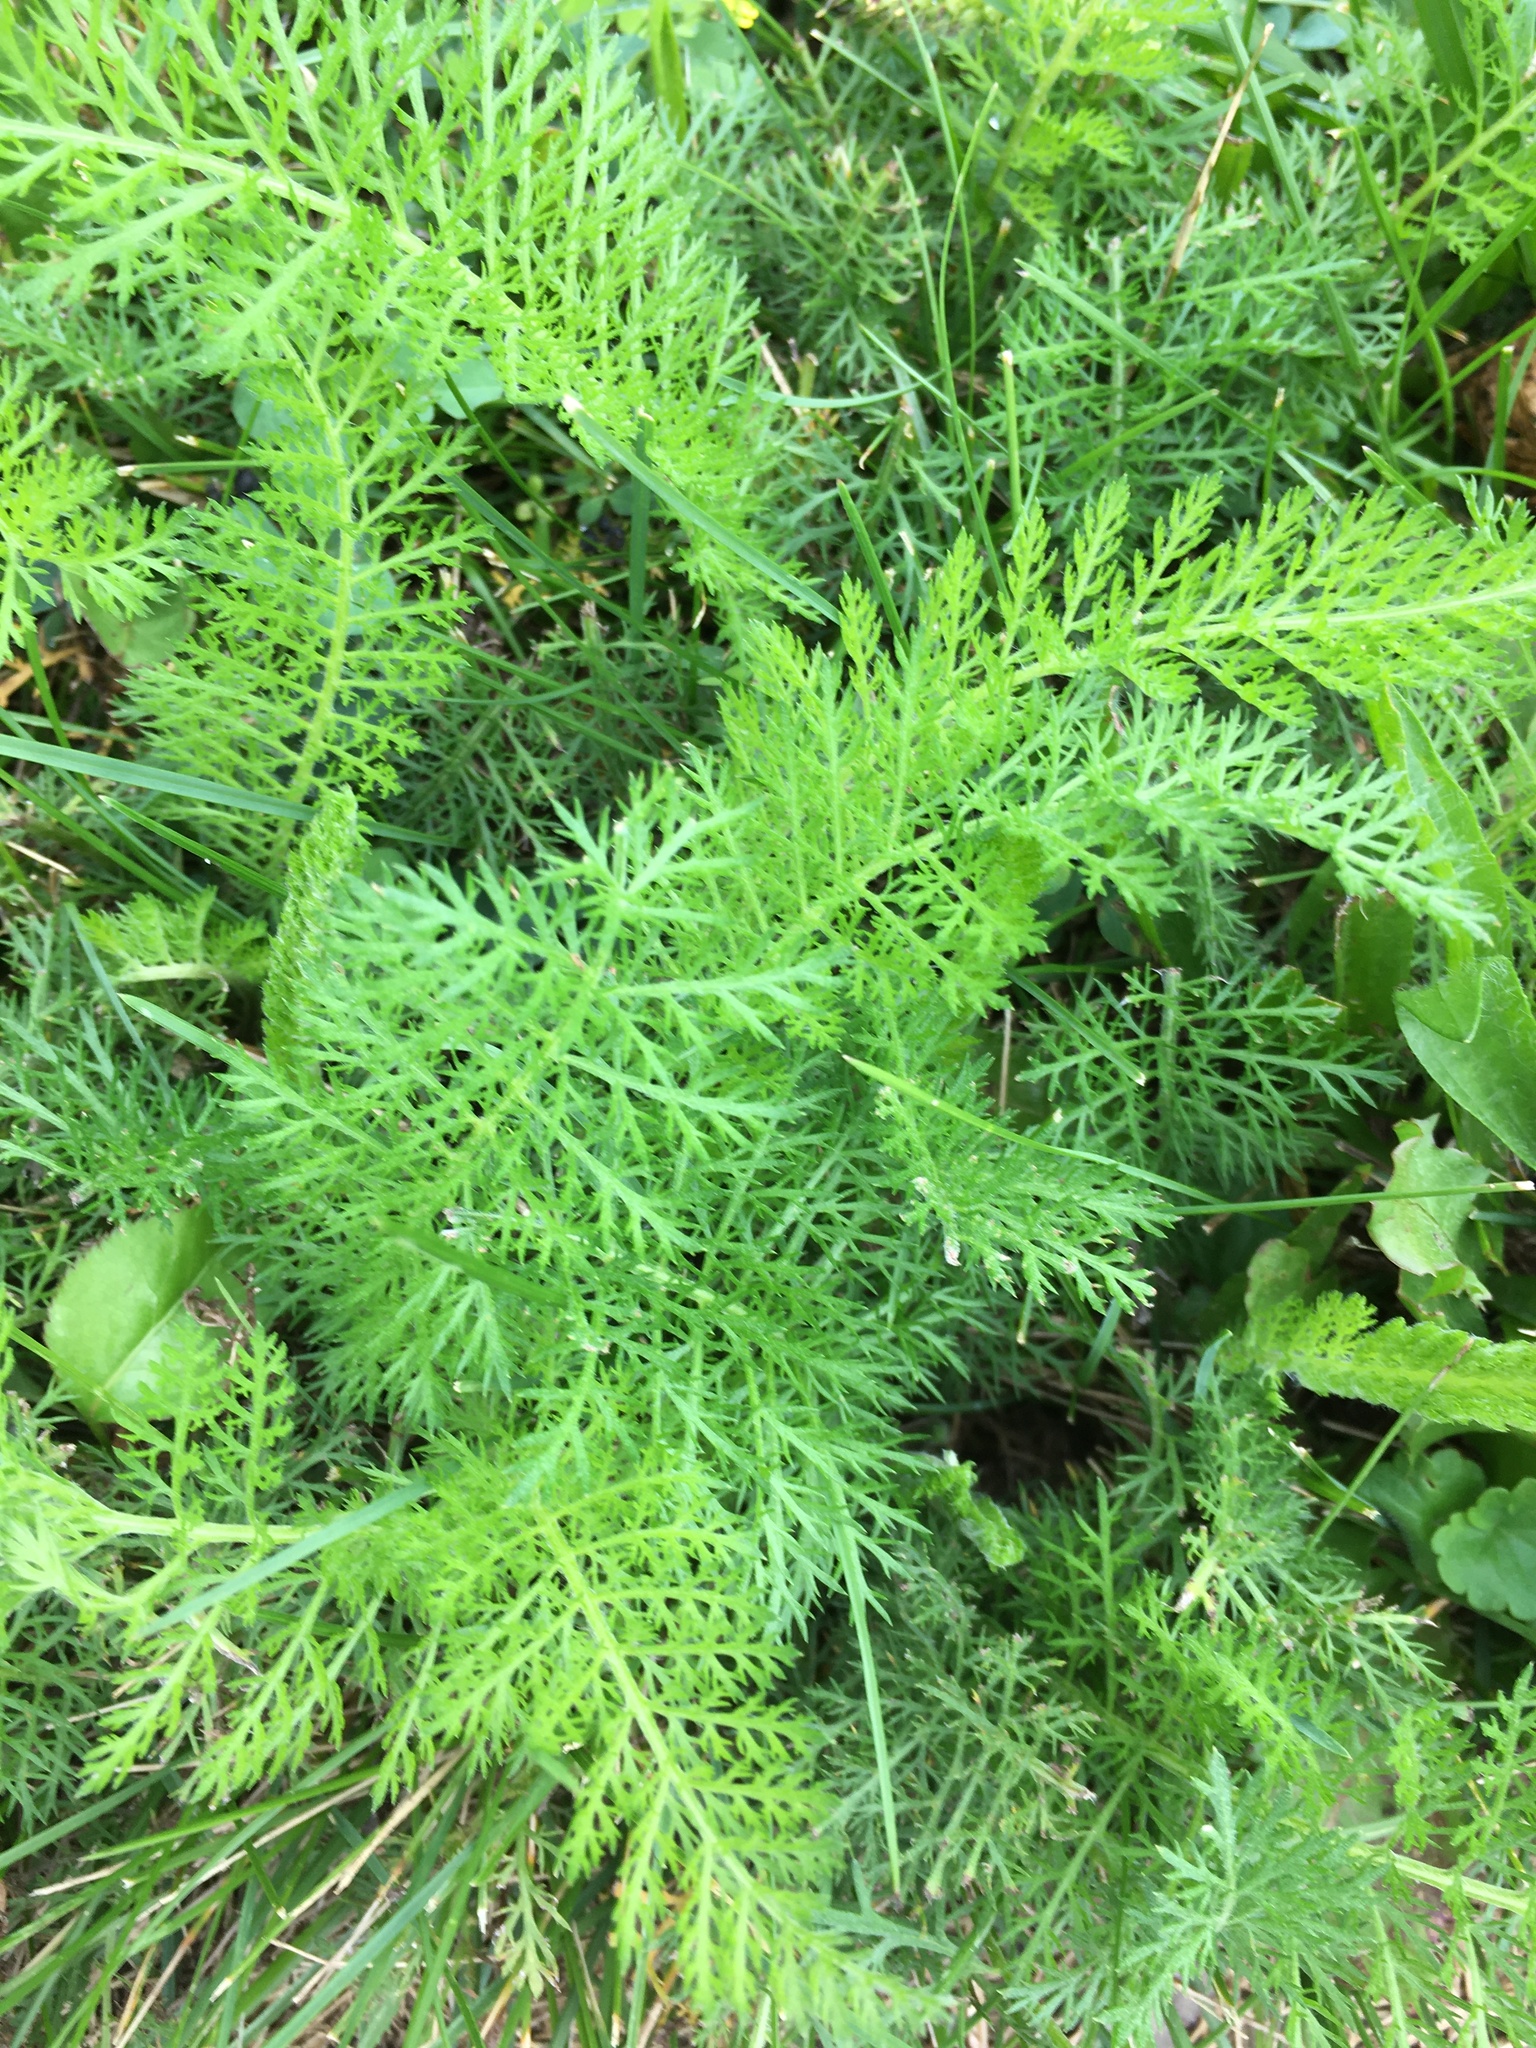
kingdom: Plantae
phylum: Tracheophyta
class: Magnoliopsida
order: Asterales
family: Asteraceae
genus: Achillea
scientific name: Achillea millefolium
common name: Yarrow
